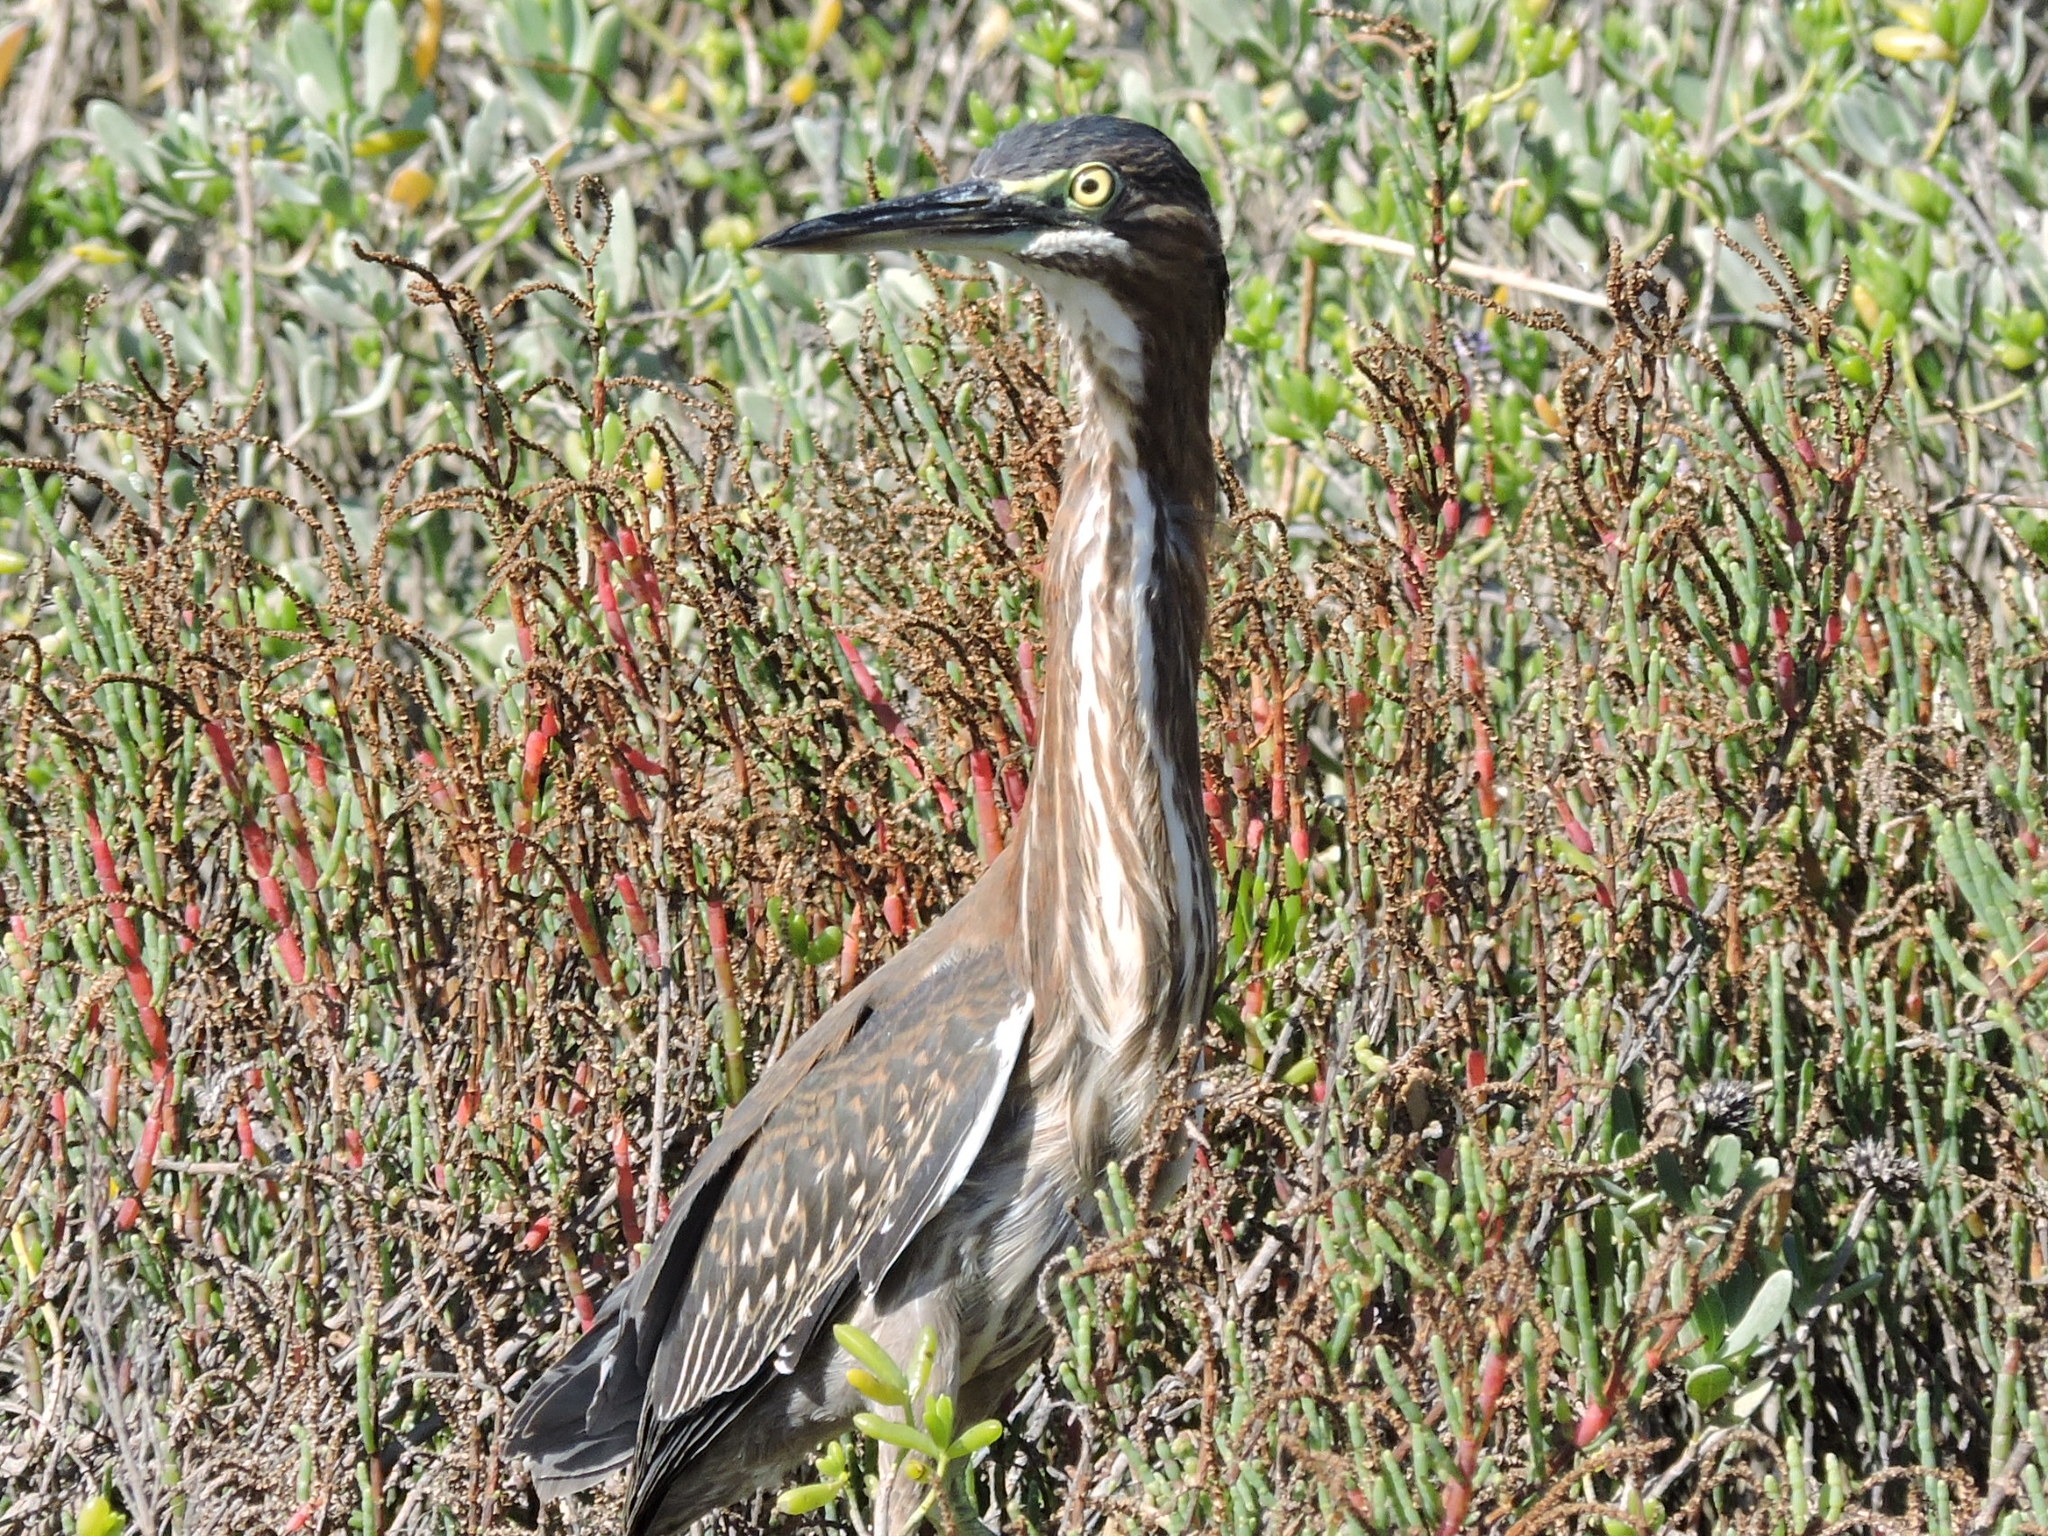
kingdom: Animalia
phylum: Chordata
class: Aves
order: Pelecaniformes
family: Ardeidae
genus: Butorides
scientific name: Butorides virescens
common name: Green heron
